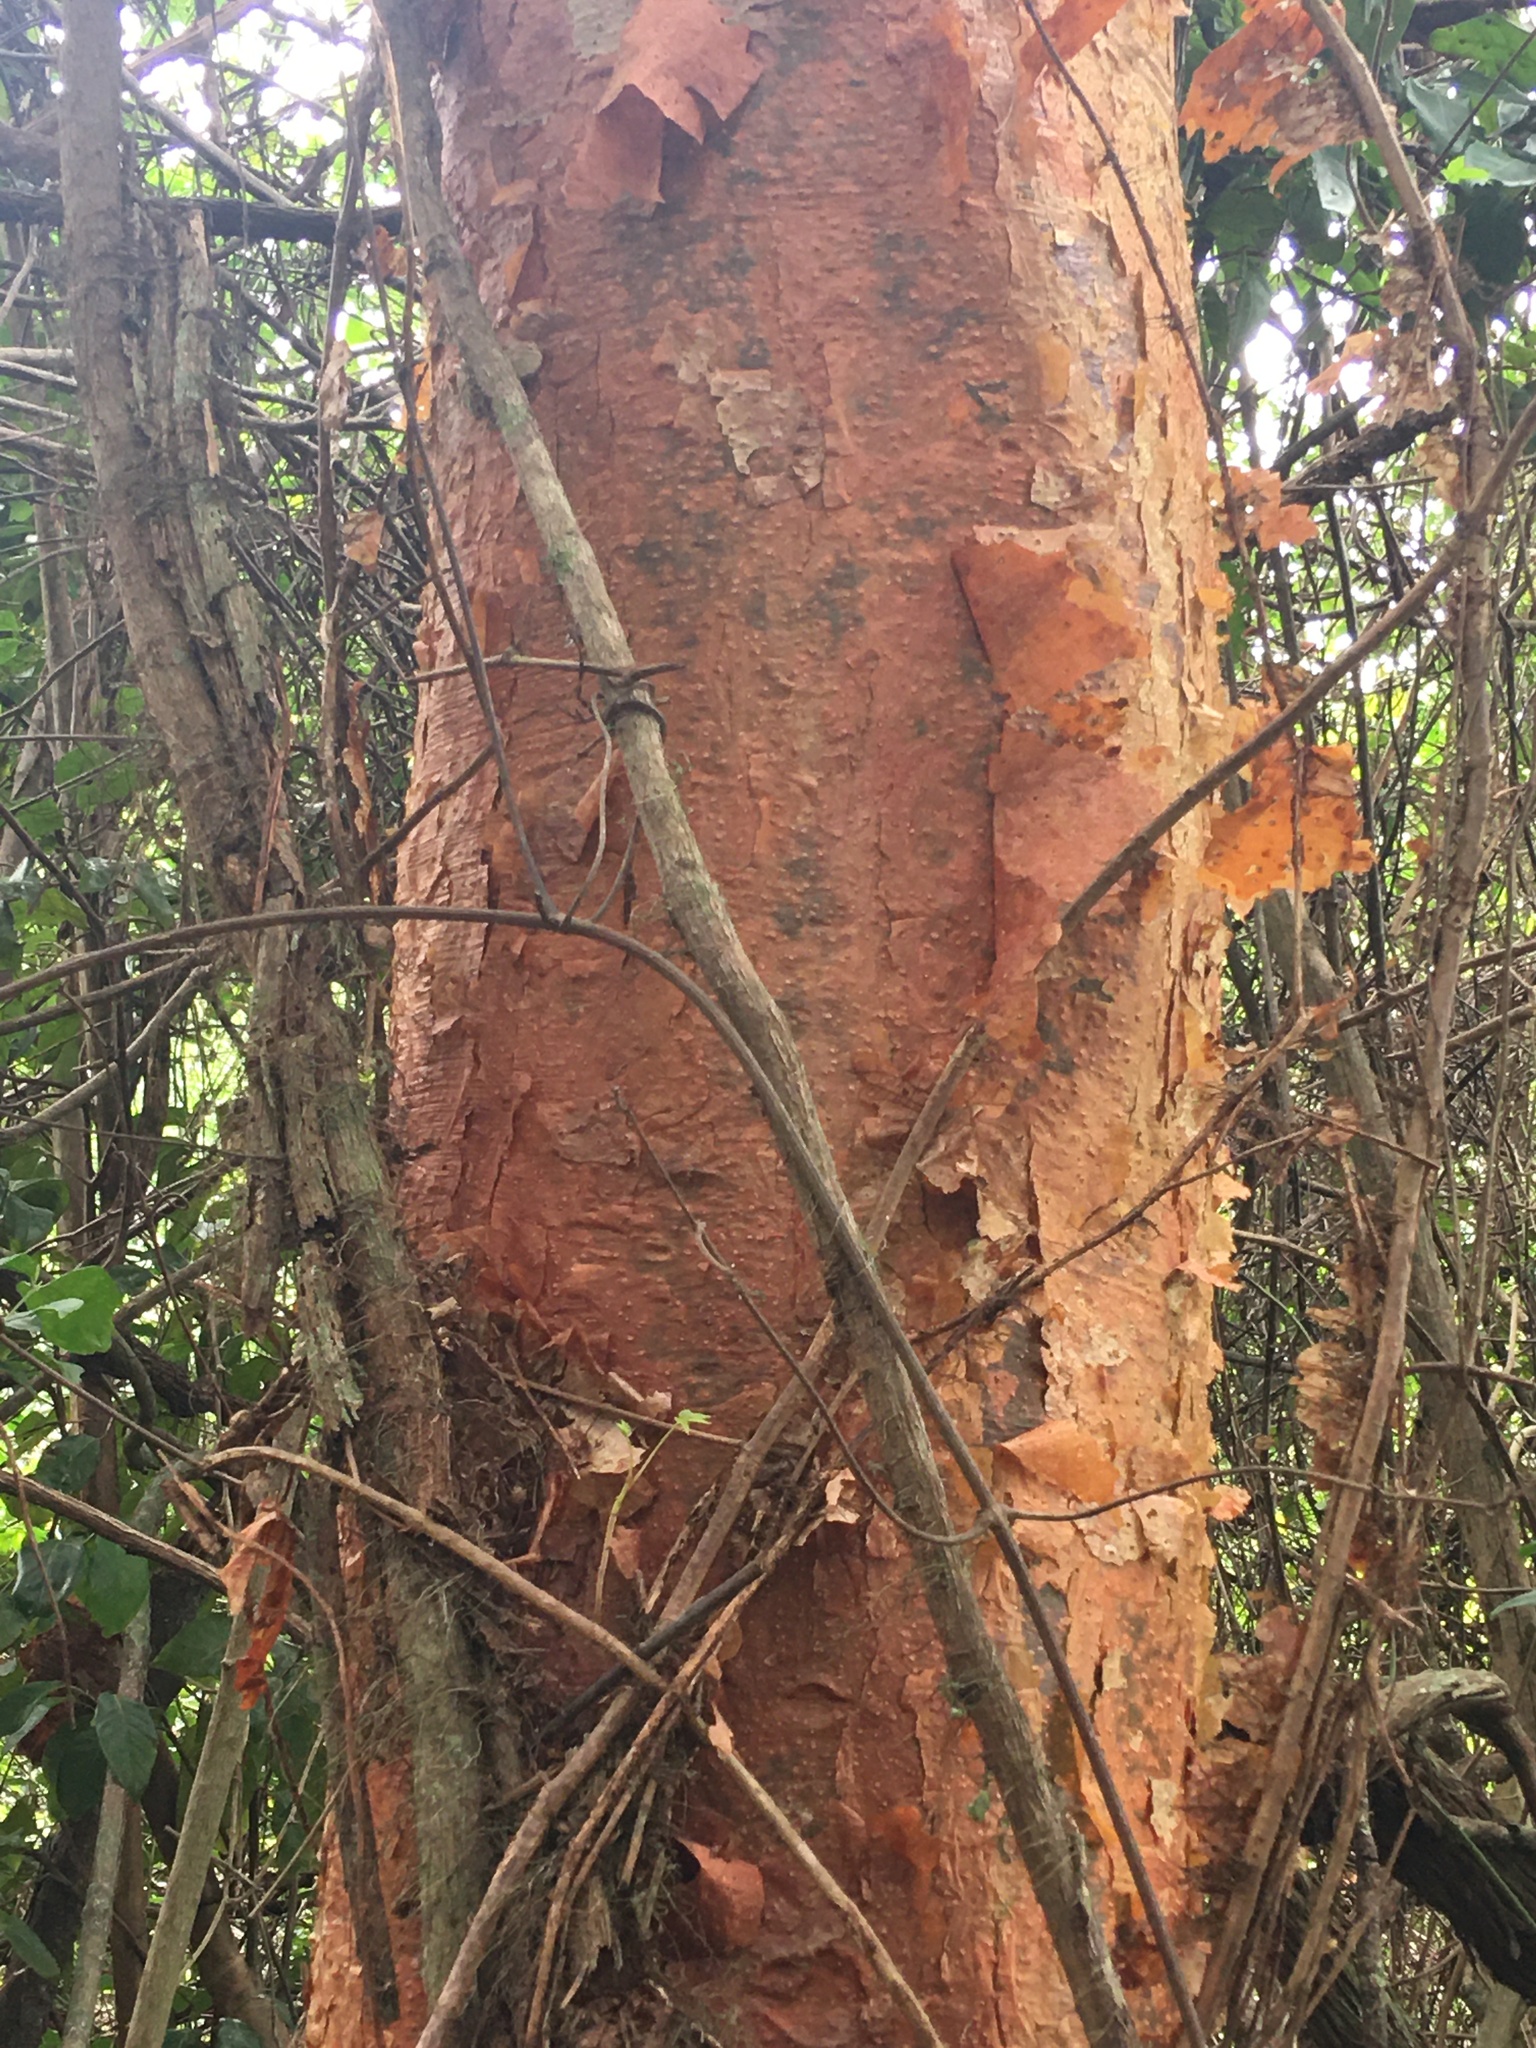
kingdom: Plantae
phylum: Tracheophyta
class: Magnoliopsida
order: Sapindales
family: Burseraceae
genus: Bursera
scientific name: Bursera simaruba
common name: Turpentine tree
